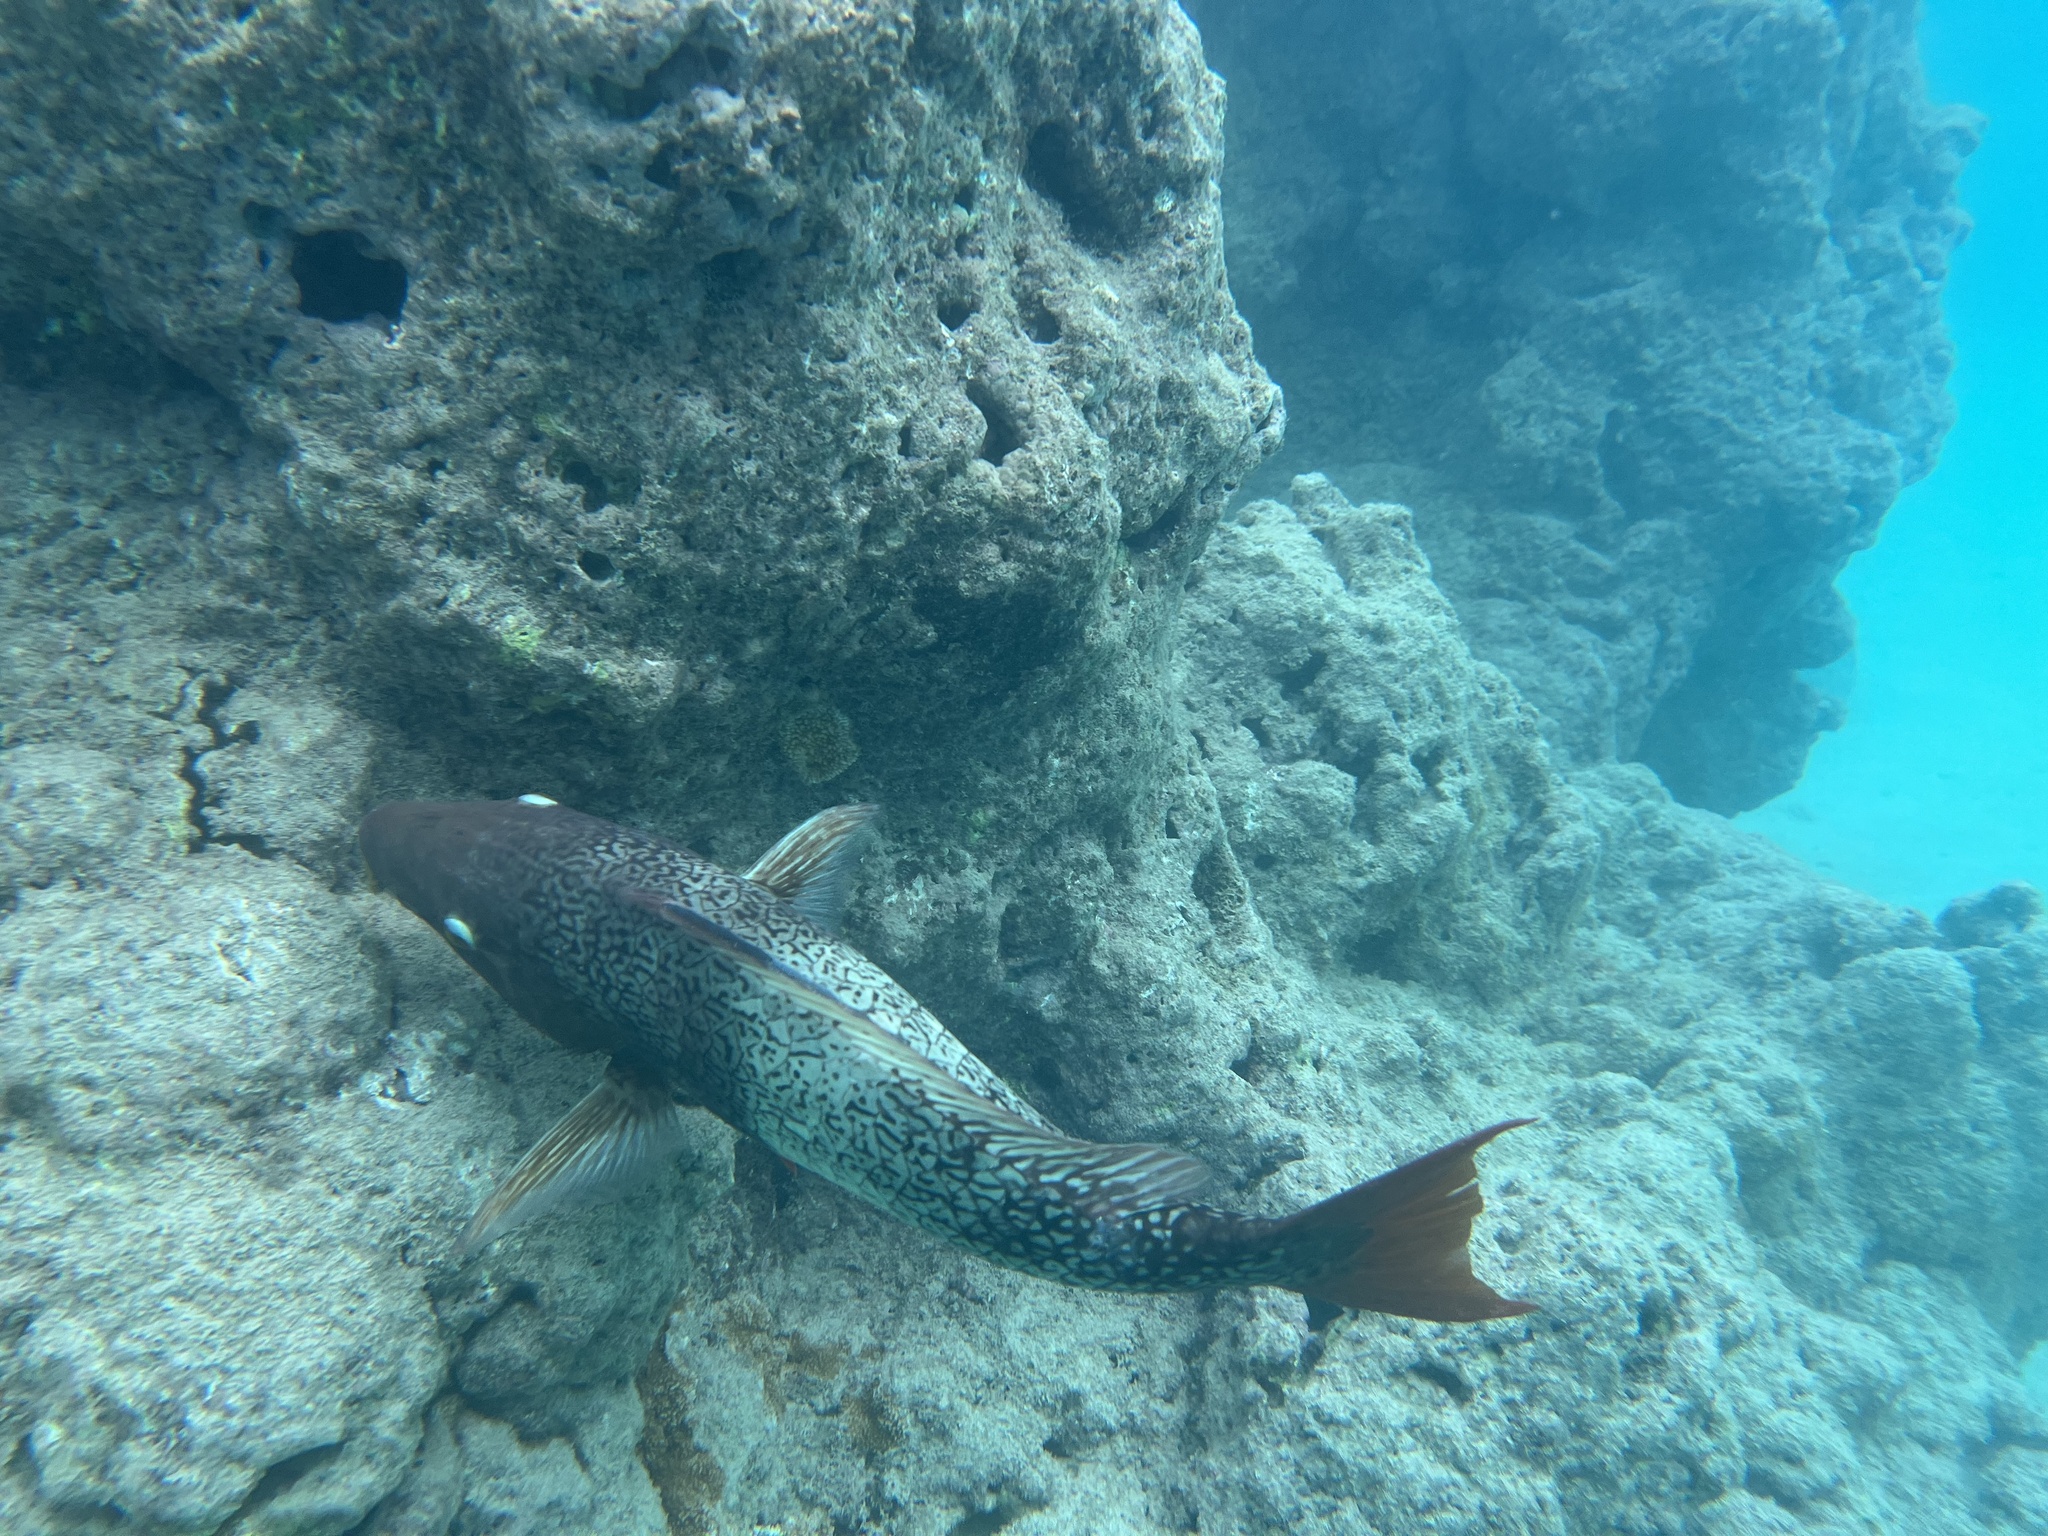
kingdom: Animalia
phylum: Chordata
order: Perciformes
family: Scaridae
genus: Scarus
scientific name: Scarus rubroviolaceus
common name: Ember parrotfish
